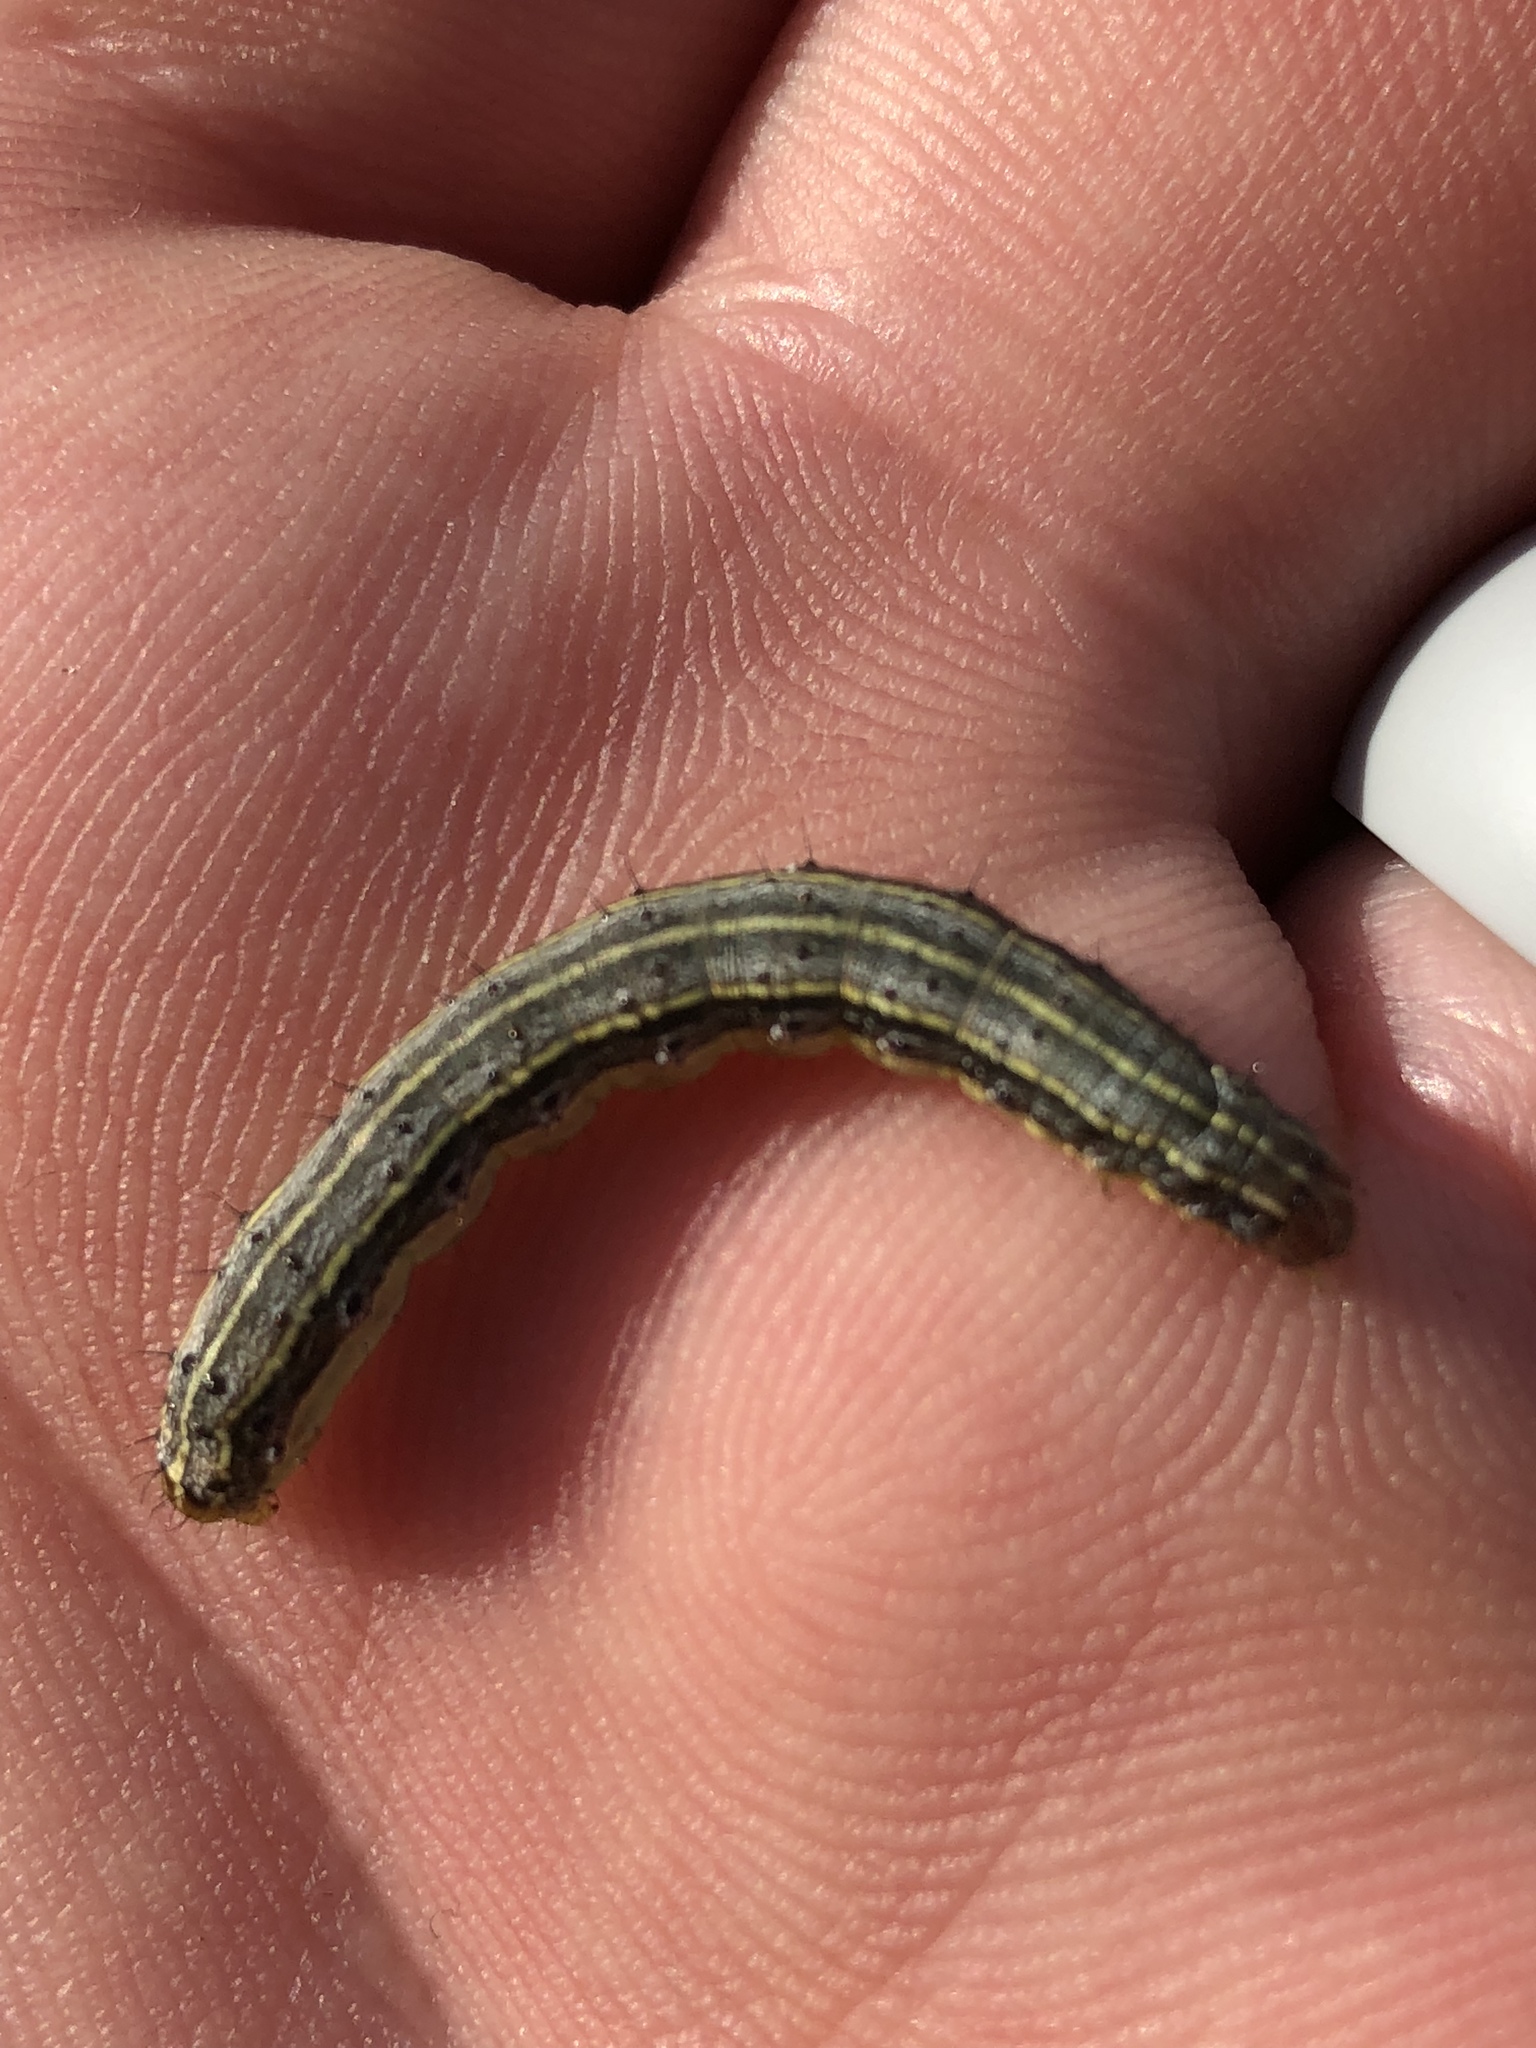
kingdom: Animalia
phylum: Arthropoda
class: Insecta
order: Lepidoptera
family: Noctuidae
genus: Spodoptera
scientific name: Spodoptera frugiperda
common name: Fall armyworm
